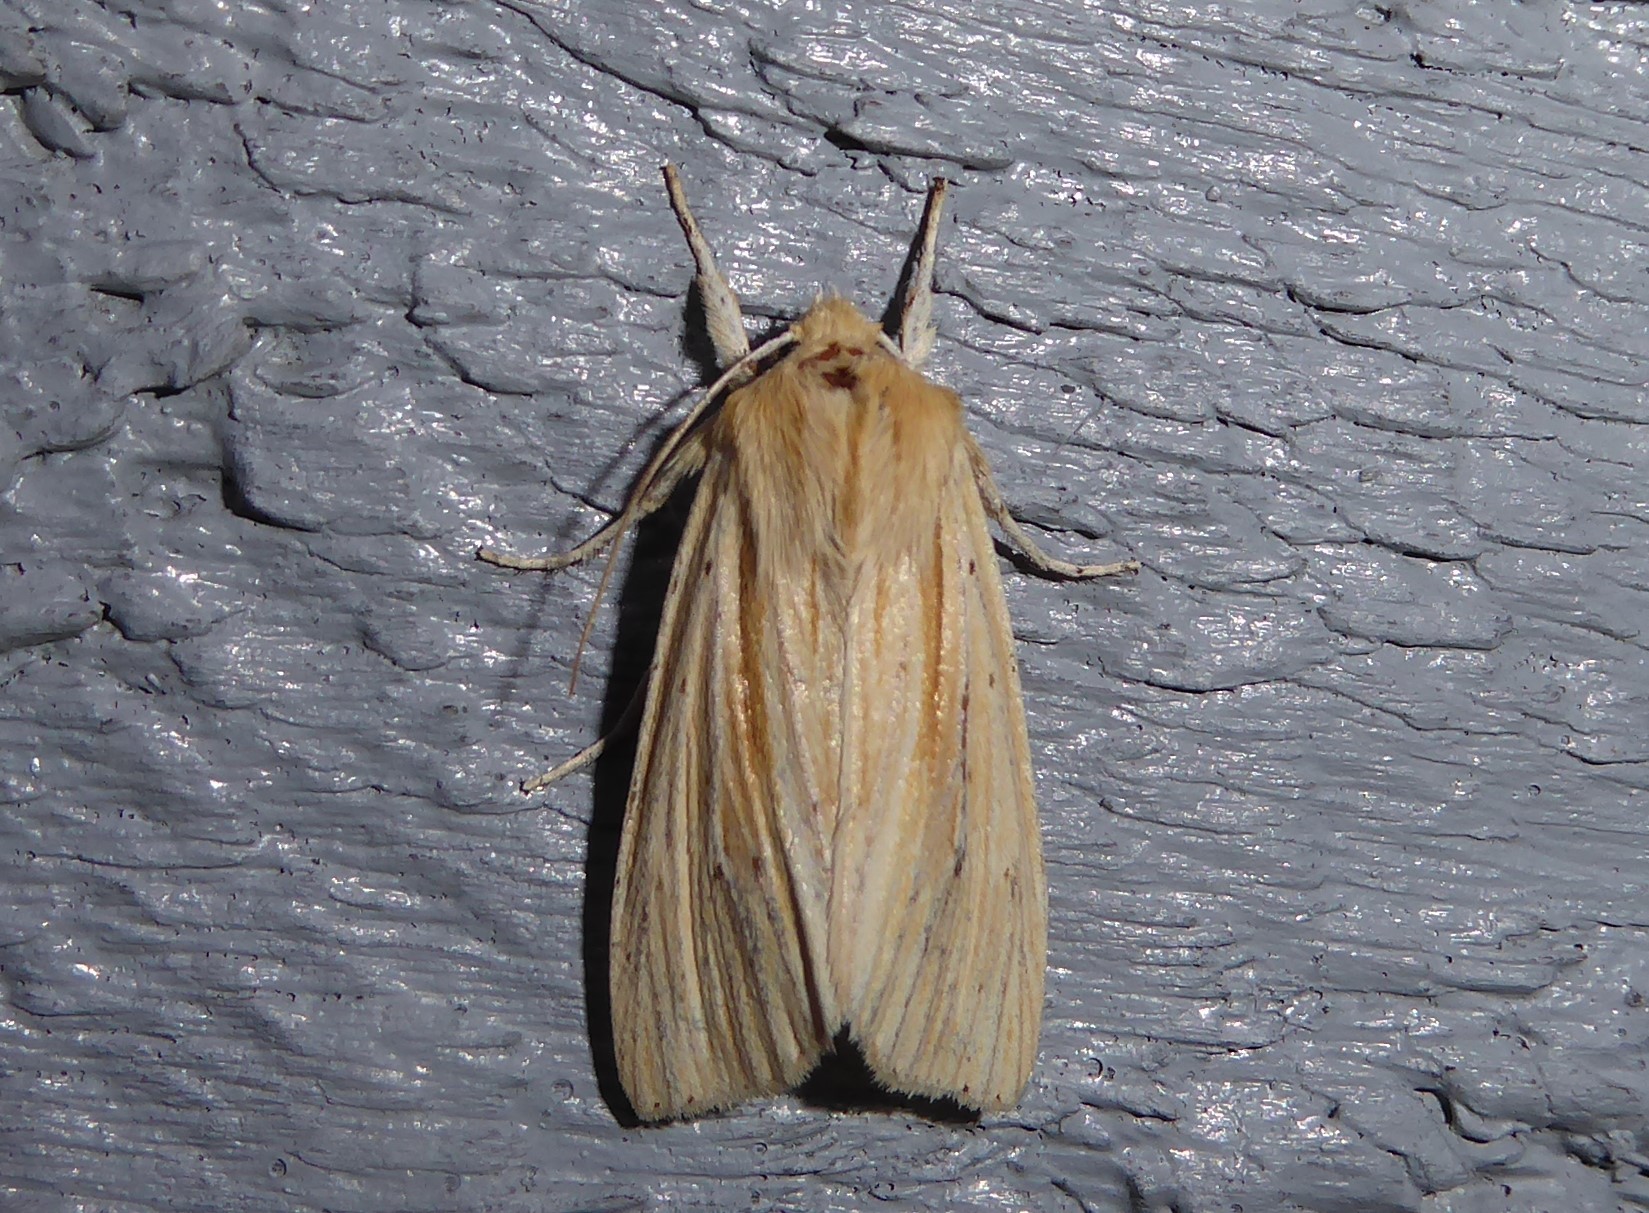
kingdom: Animalia
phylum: Arthropoda
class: Insecta
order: Lepidoptera
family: Noctuidae
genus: Ichneutica
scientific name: Ichneutica semivittata
